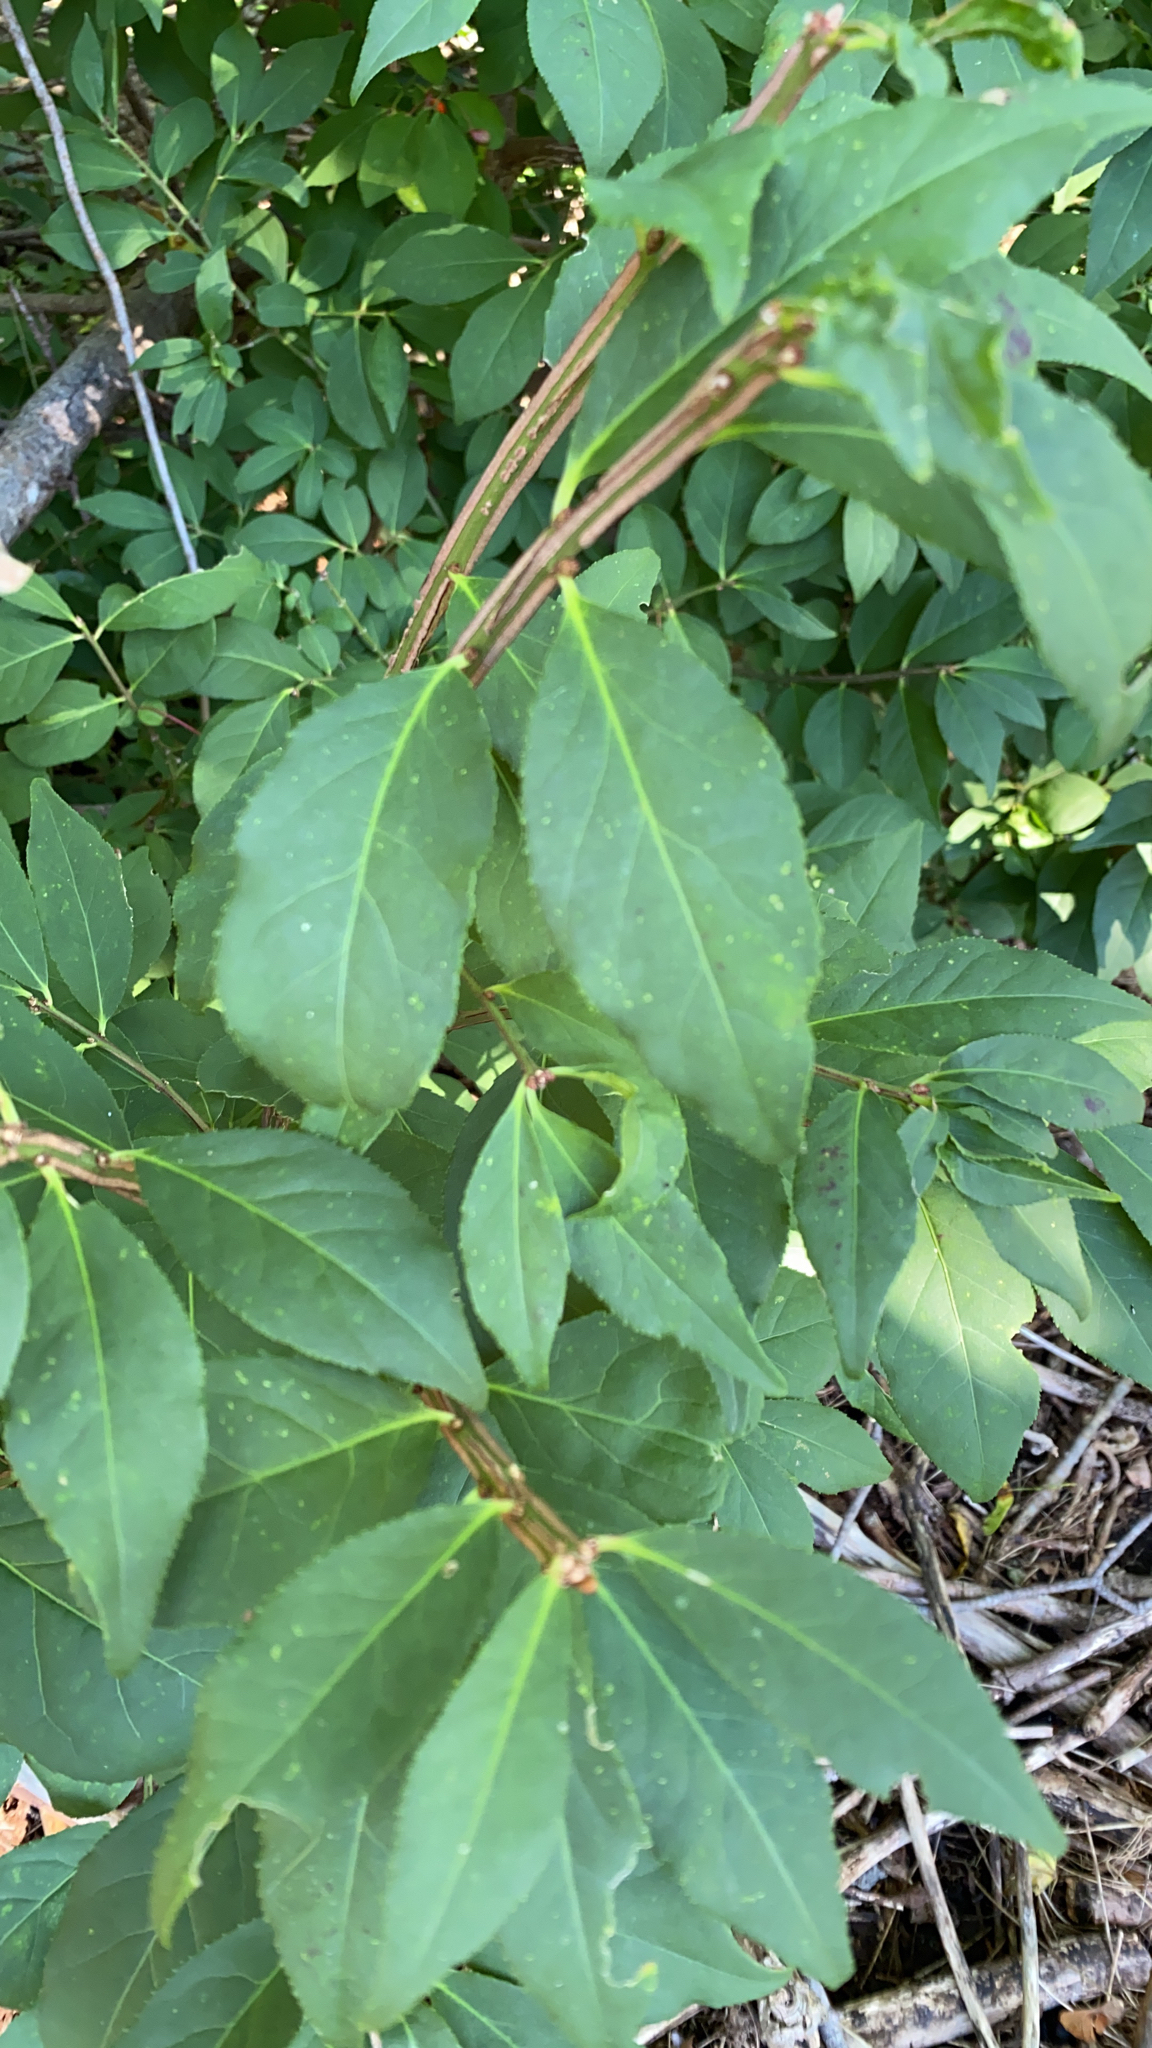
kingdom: Plantae
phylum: Tracheophyta
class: Magnoliopsida
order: Celastrales
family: Celastraceae
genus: Euonymus
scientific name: Euonymus alatus
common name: Winged euonymus
